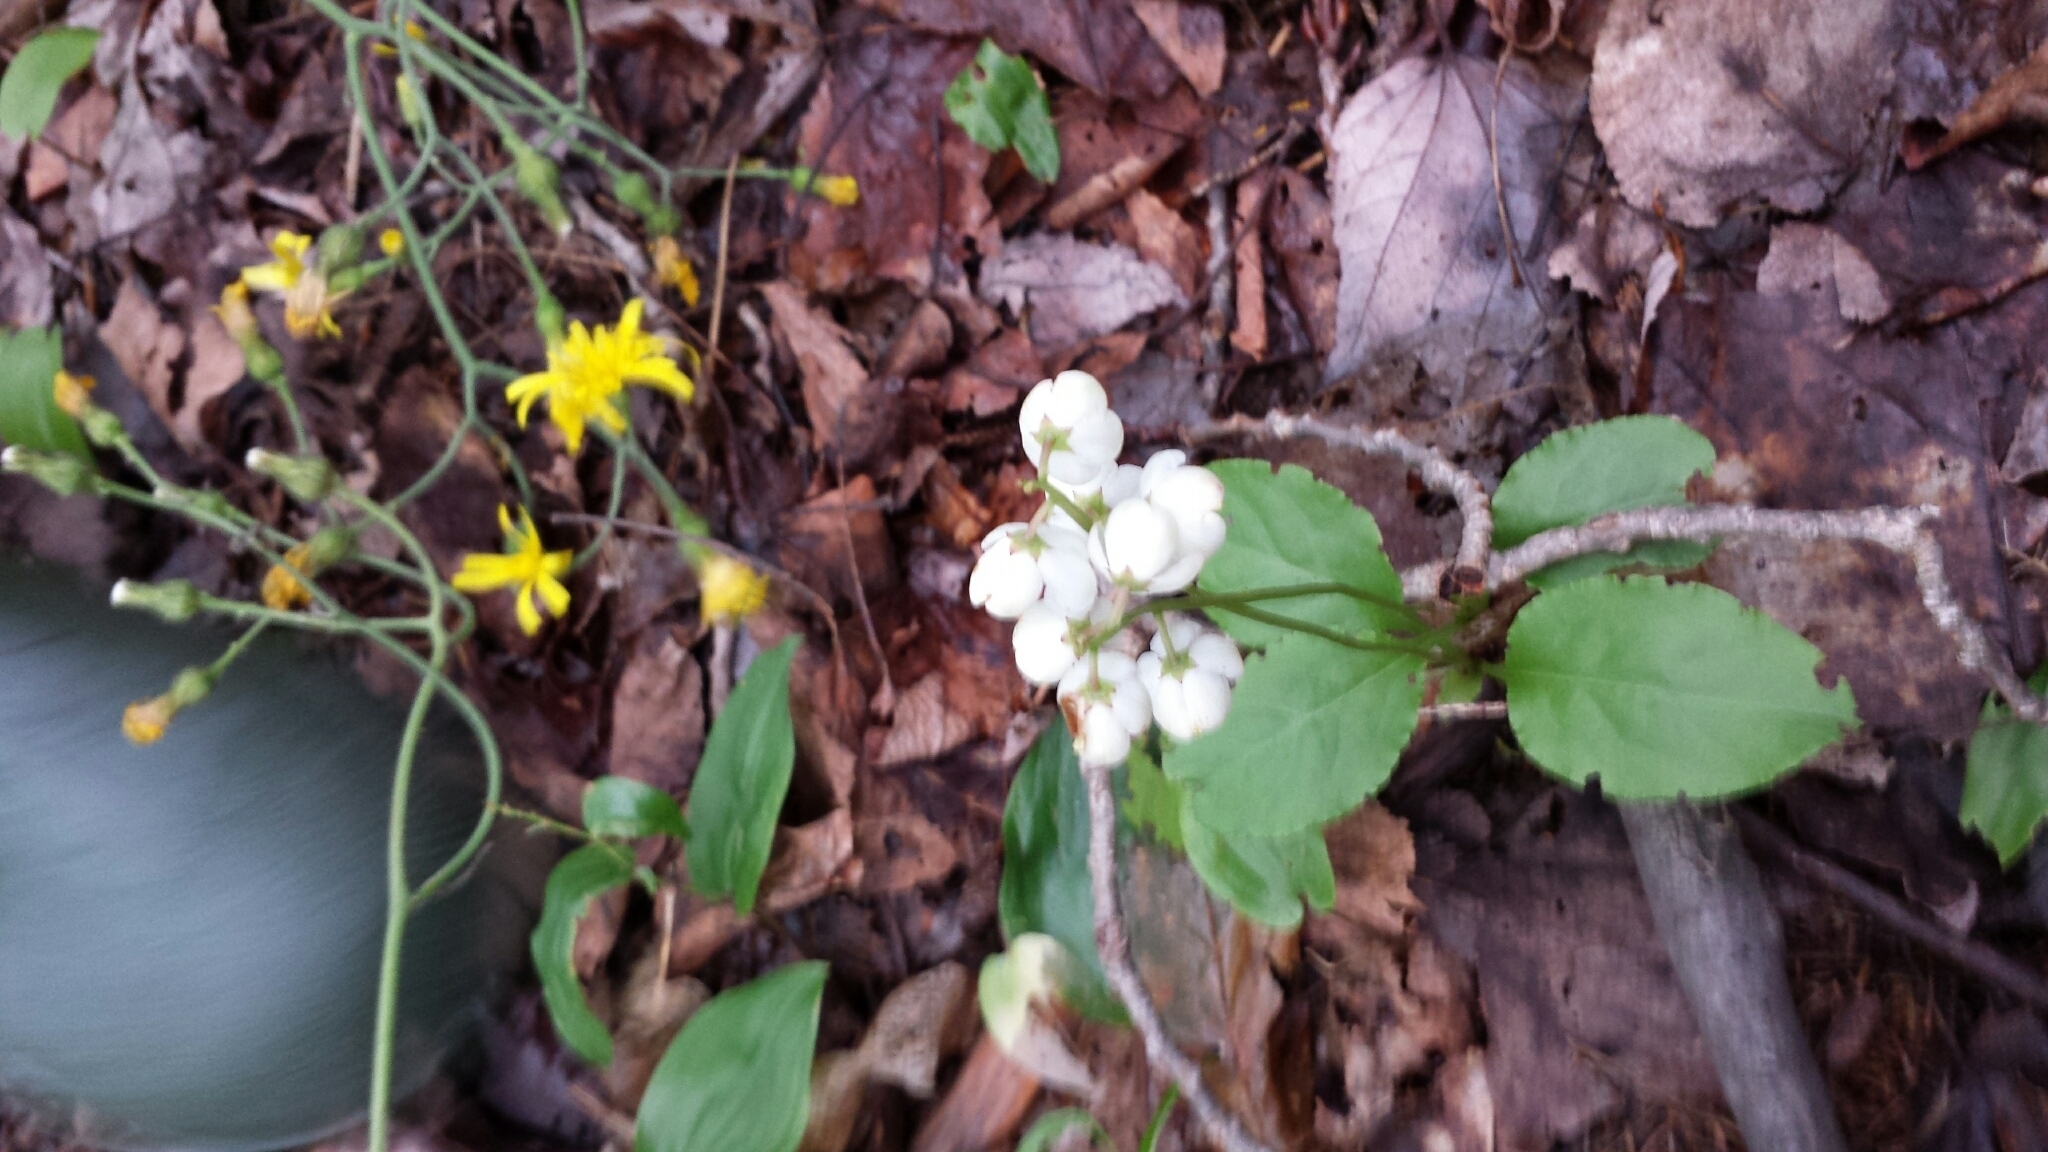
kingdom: Plantae
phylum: Tracheophyta
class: Magnoliopsida
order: Ericales
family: Ericaceae
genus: Pyrola
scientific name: Pyrola elliptica
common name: Shinleaf
